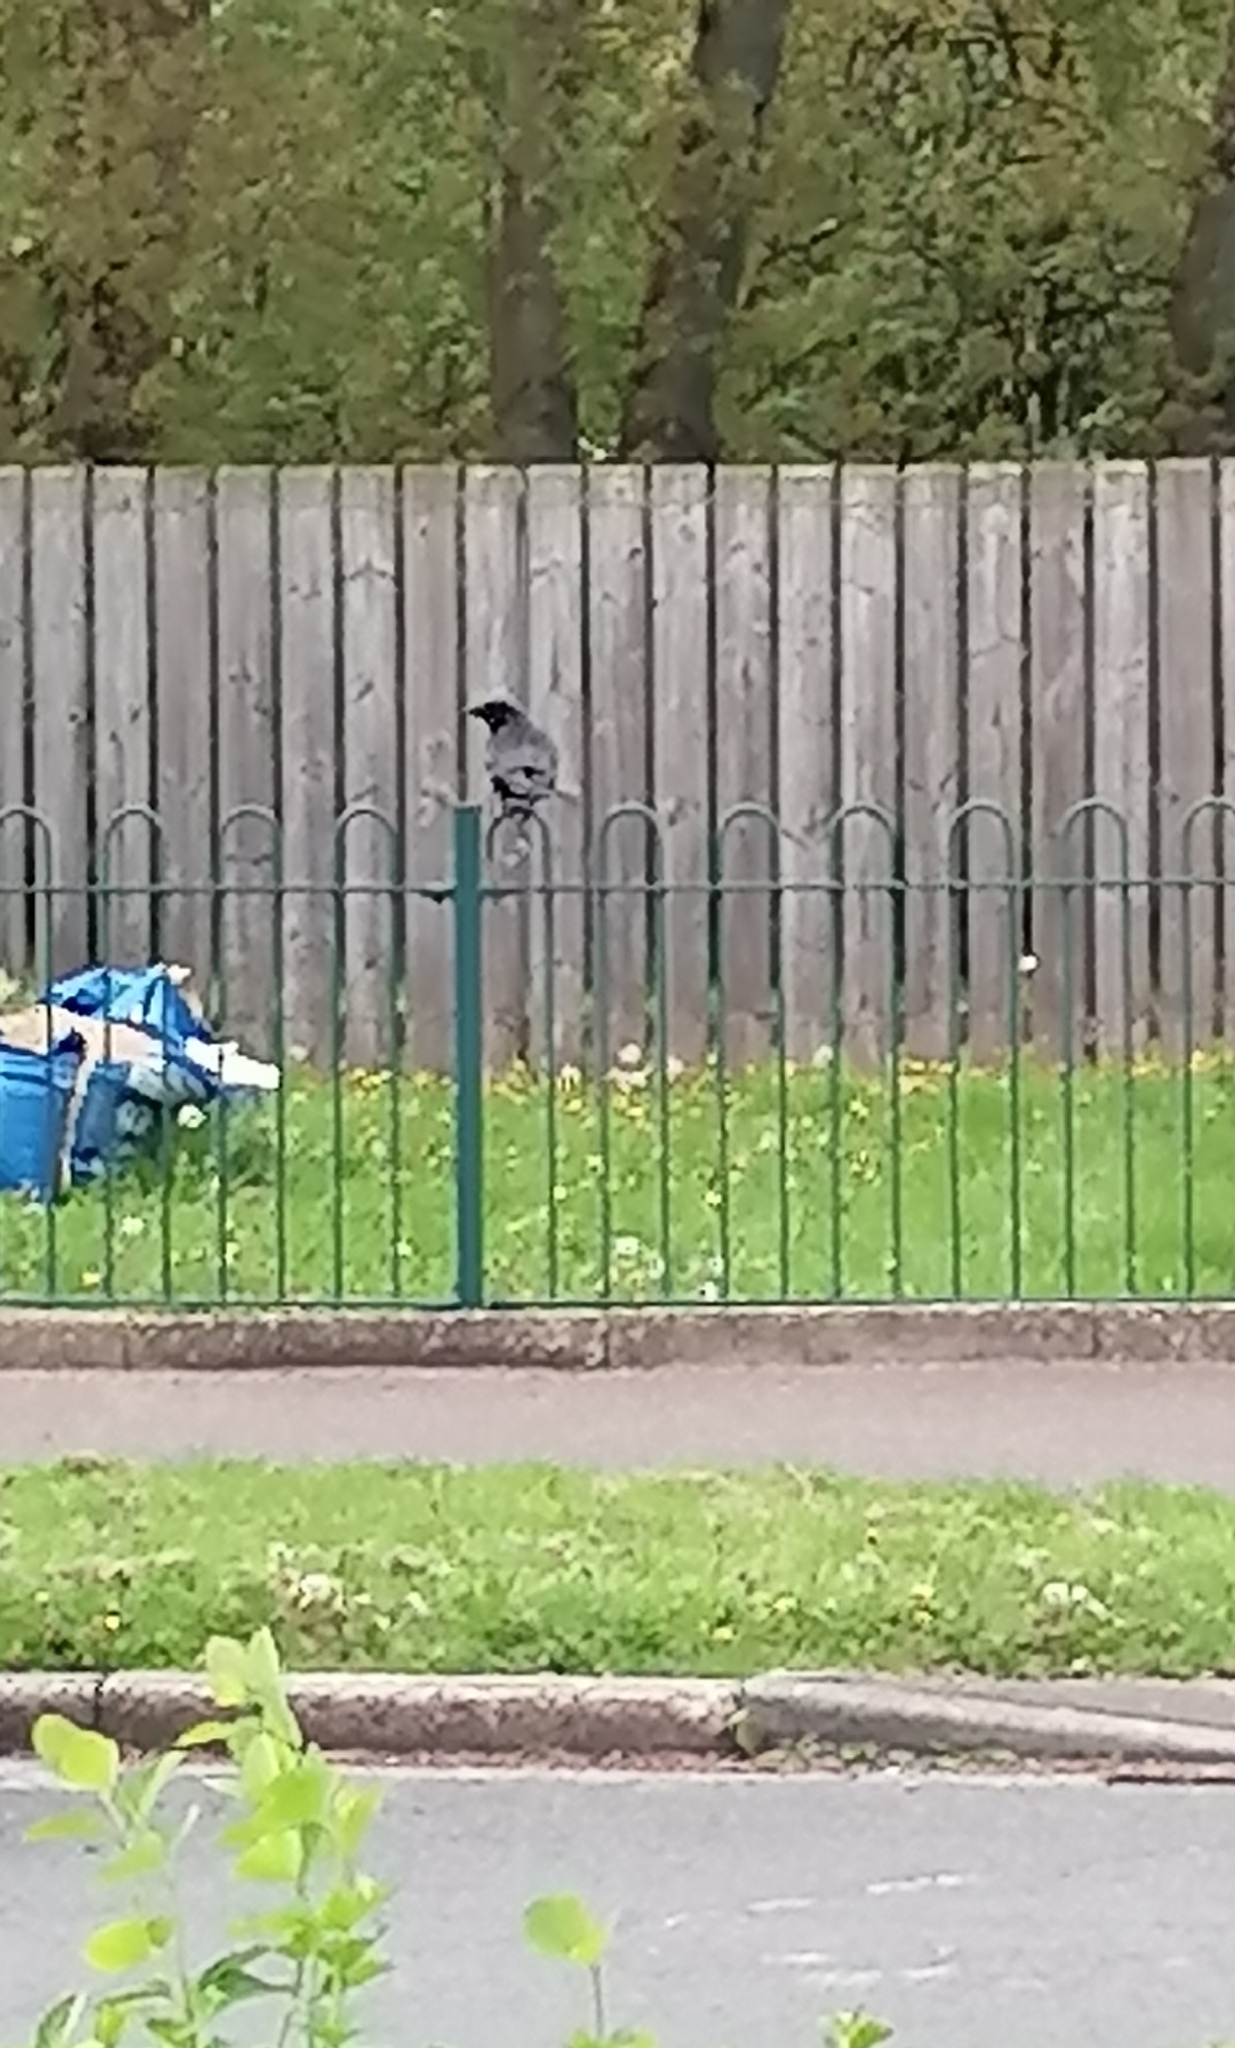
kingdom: Animalia
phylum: Chordata
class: Aves
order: Passeriformes
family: Corvidae
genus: Corvus
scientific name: Corvus corone
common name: Carrion crow
